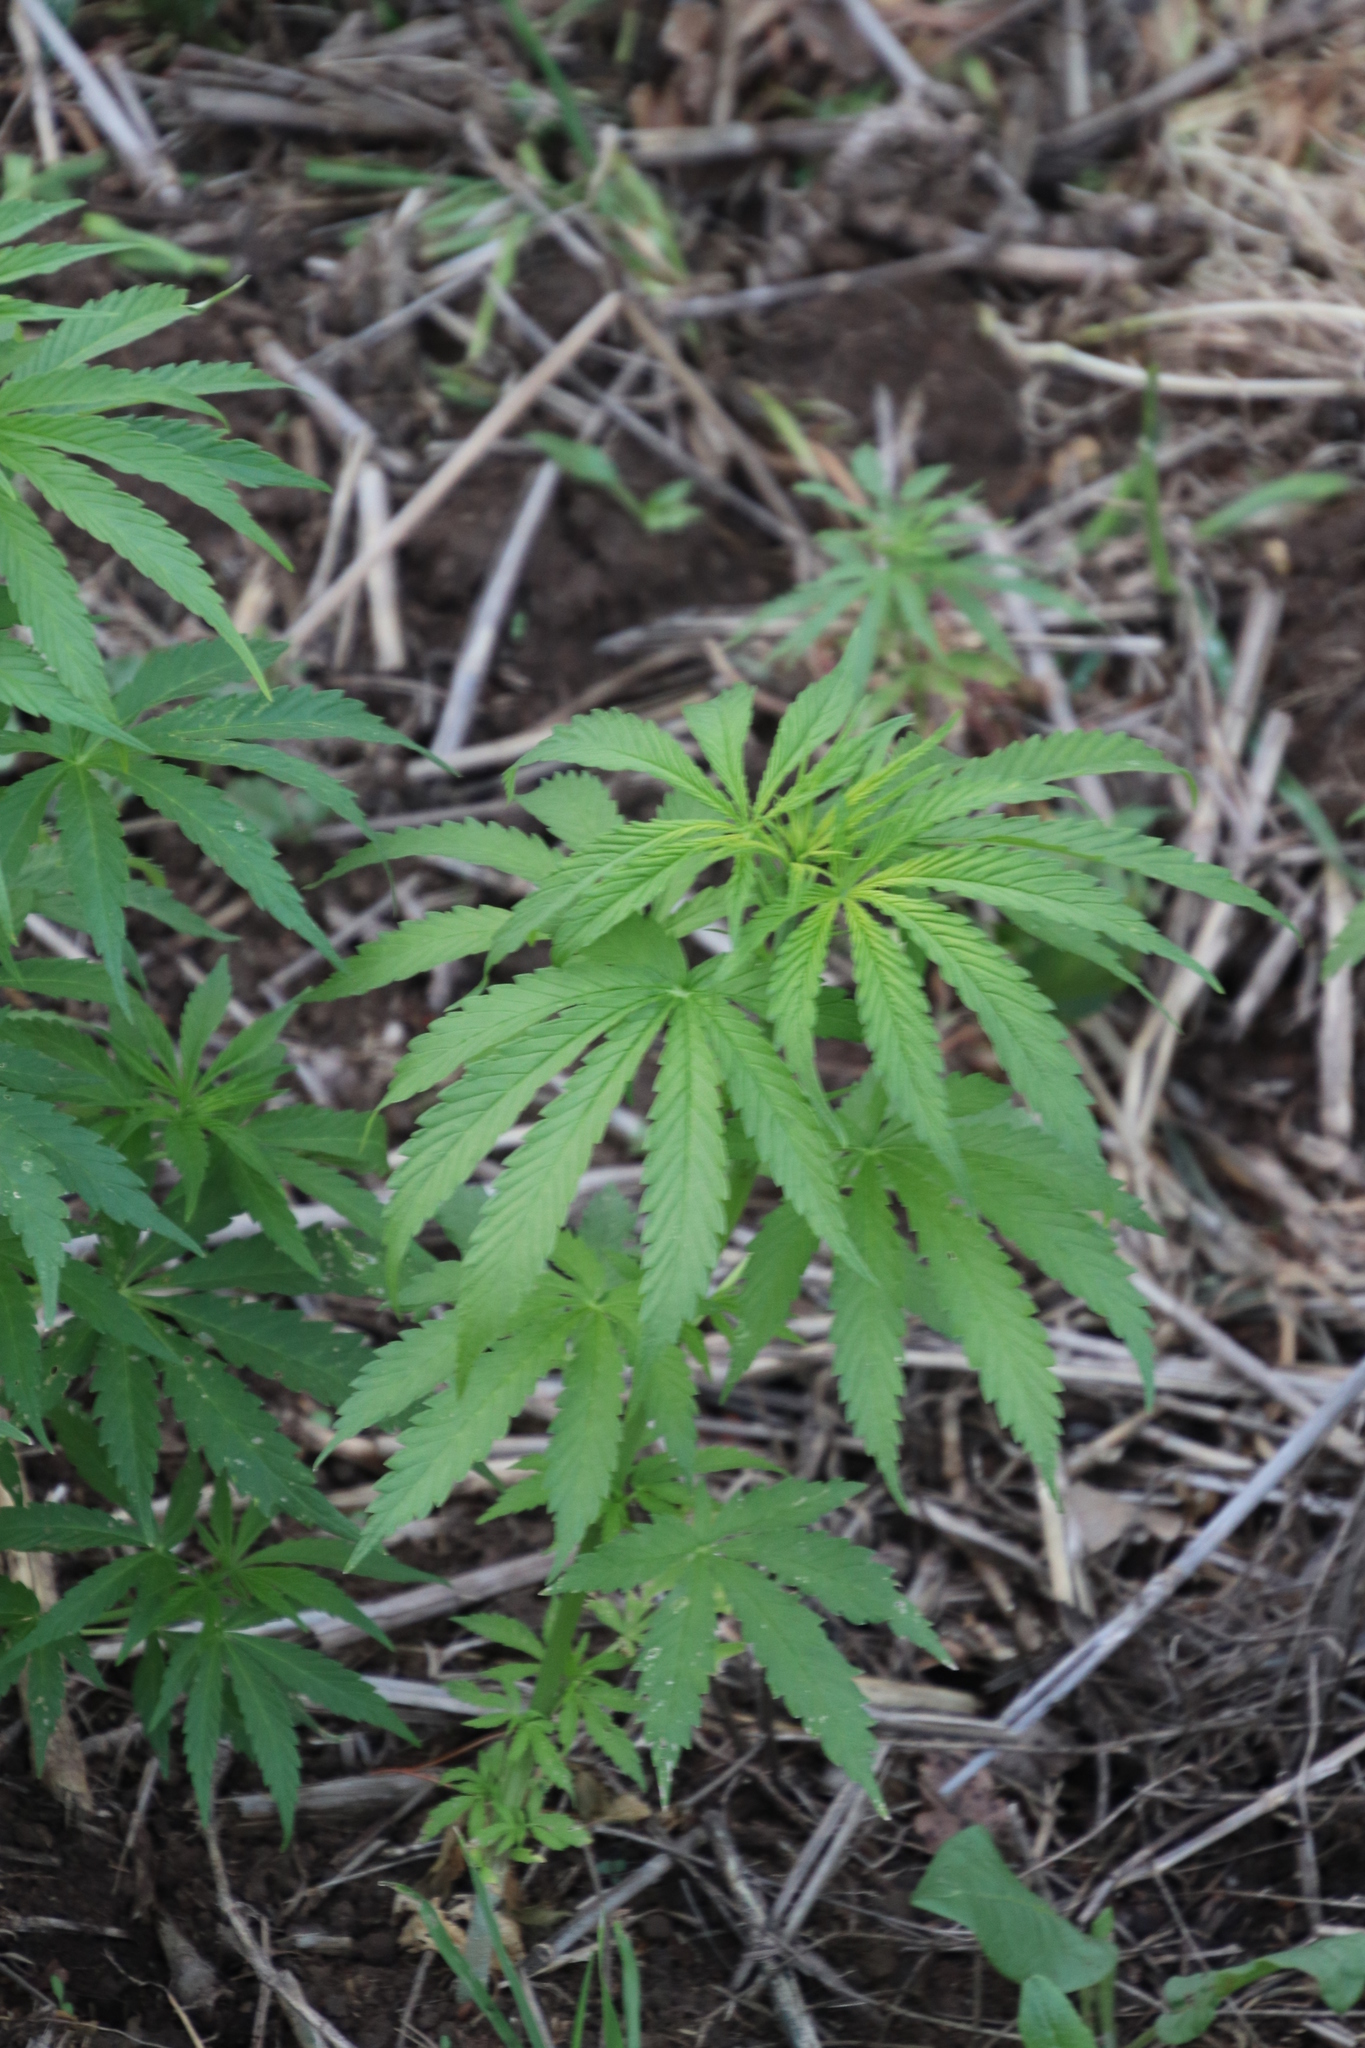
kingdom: Plantae
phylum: Tracheophyta
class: Magnoliopsida
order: Rosales
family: Cannabaceae
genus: Cannabis
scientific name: Cannabis sativa
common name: Hemp
